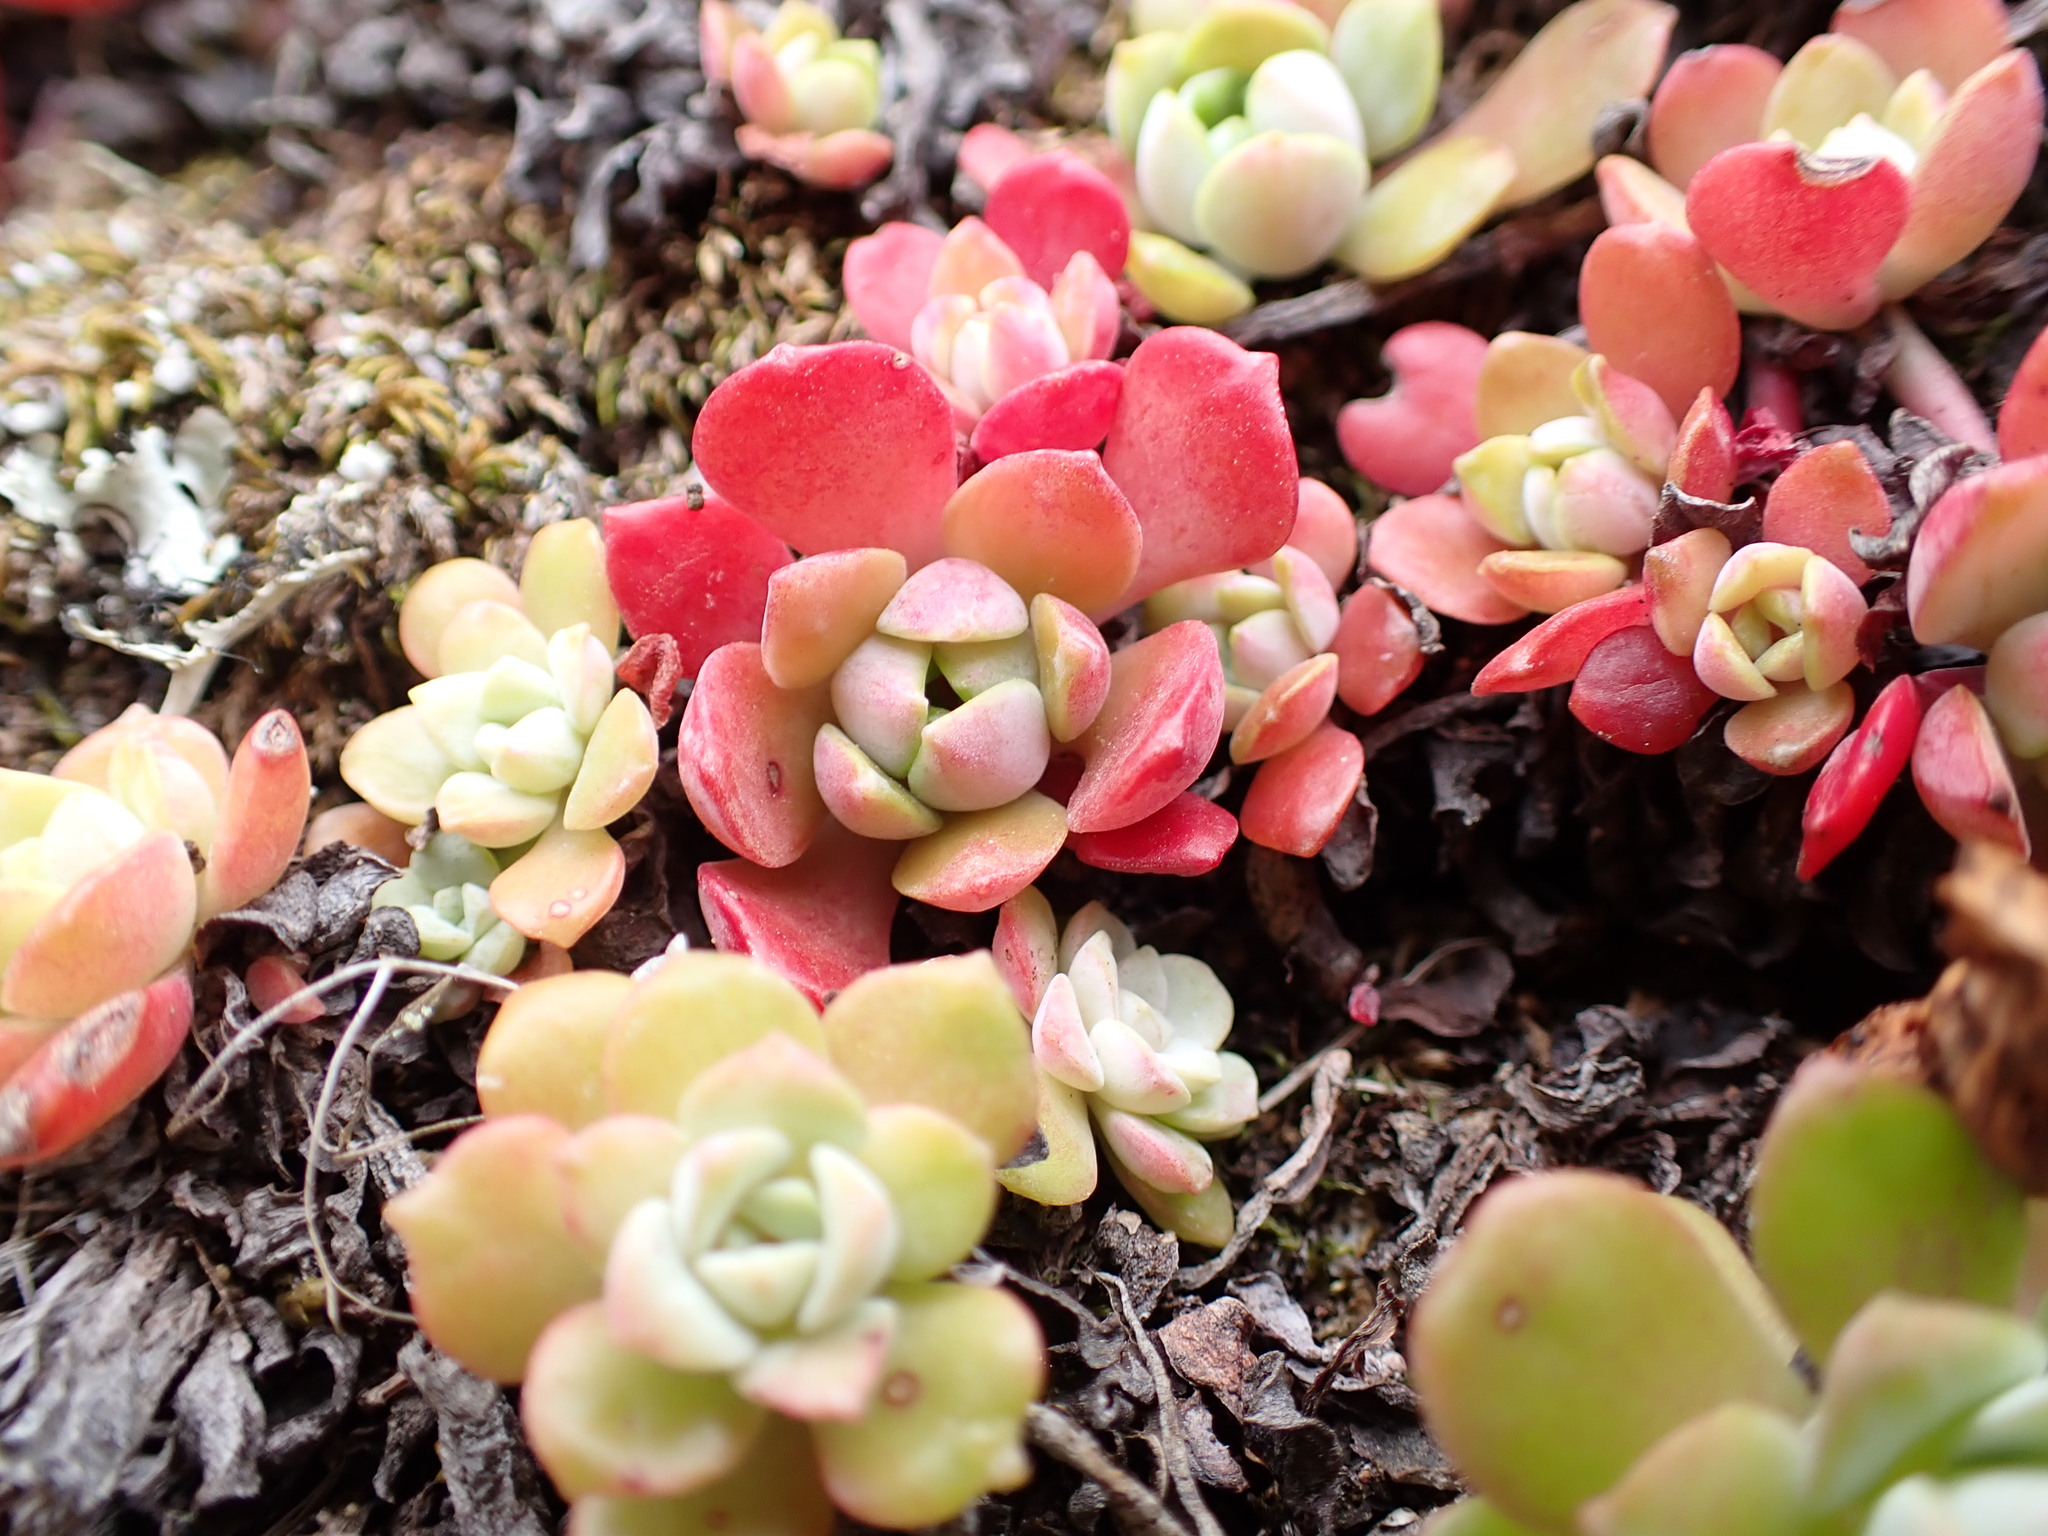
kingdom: Plantae
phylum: Tracheophyta
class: Magnoliopsida
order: Saxifragales
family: Crassulaceae
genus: Sedum
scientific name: Sedum spathulifolium
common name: Colorado stonecrop
